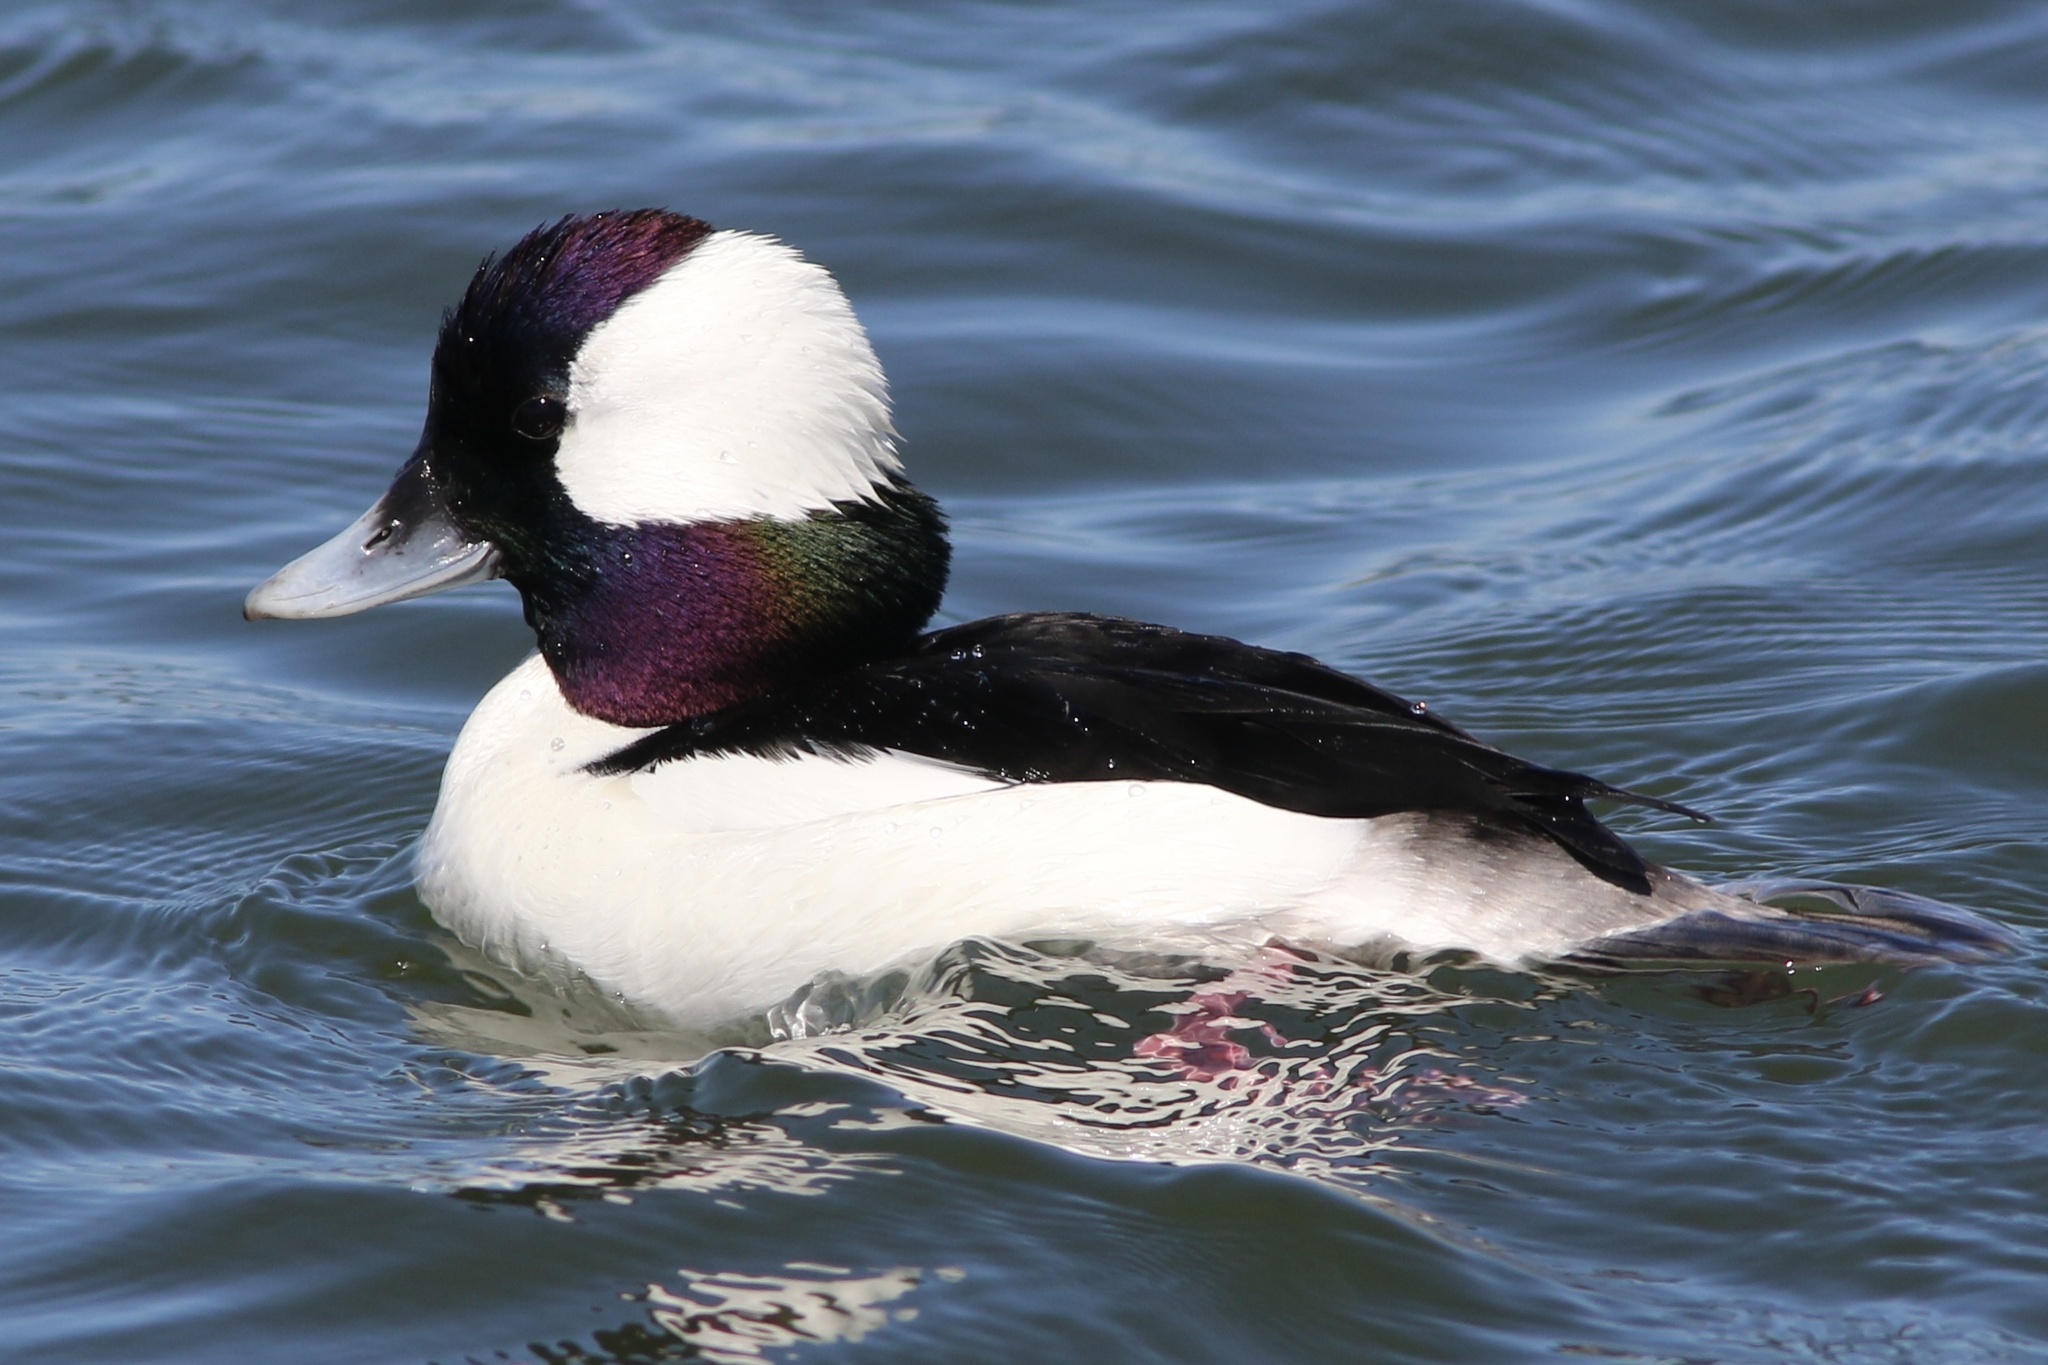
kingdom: Animalia
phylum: Chordata
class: Aves
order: Anseriformes
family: Anatidae
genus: Bucephala
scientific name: Bucephala albeola
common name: Bufflehead
